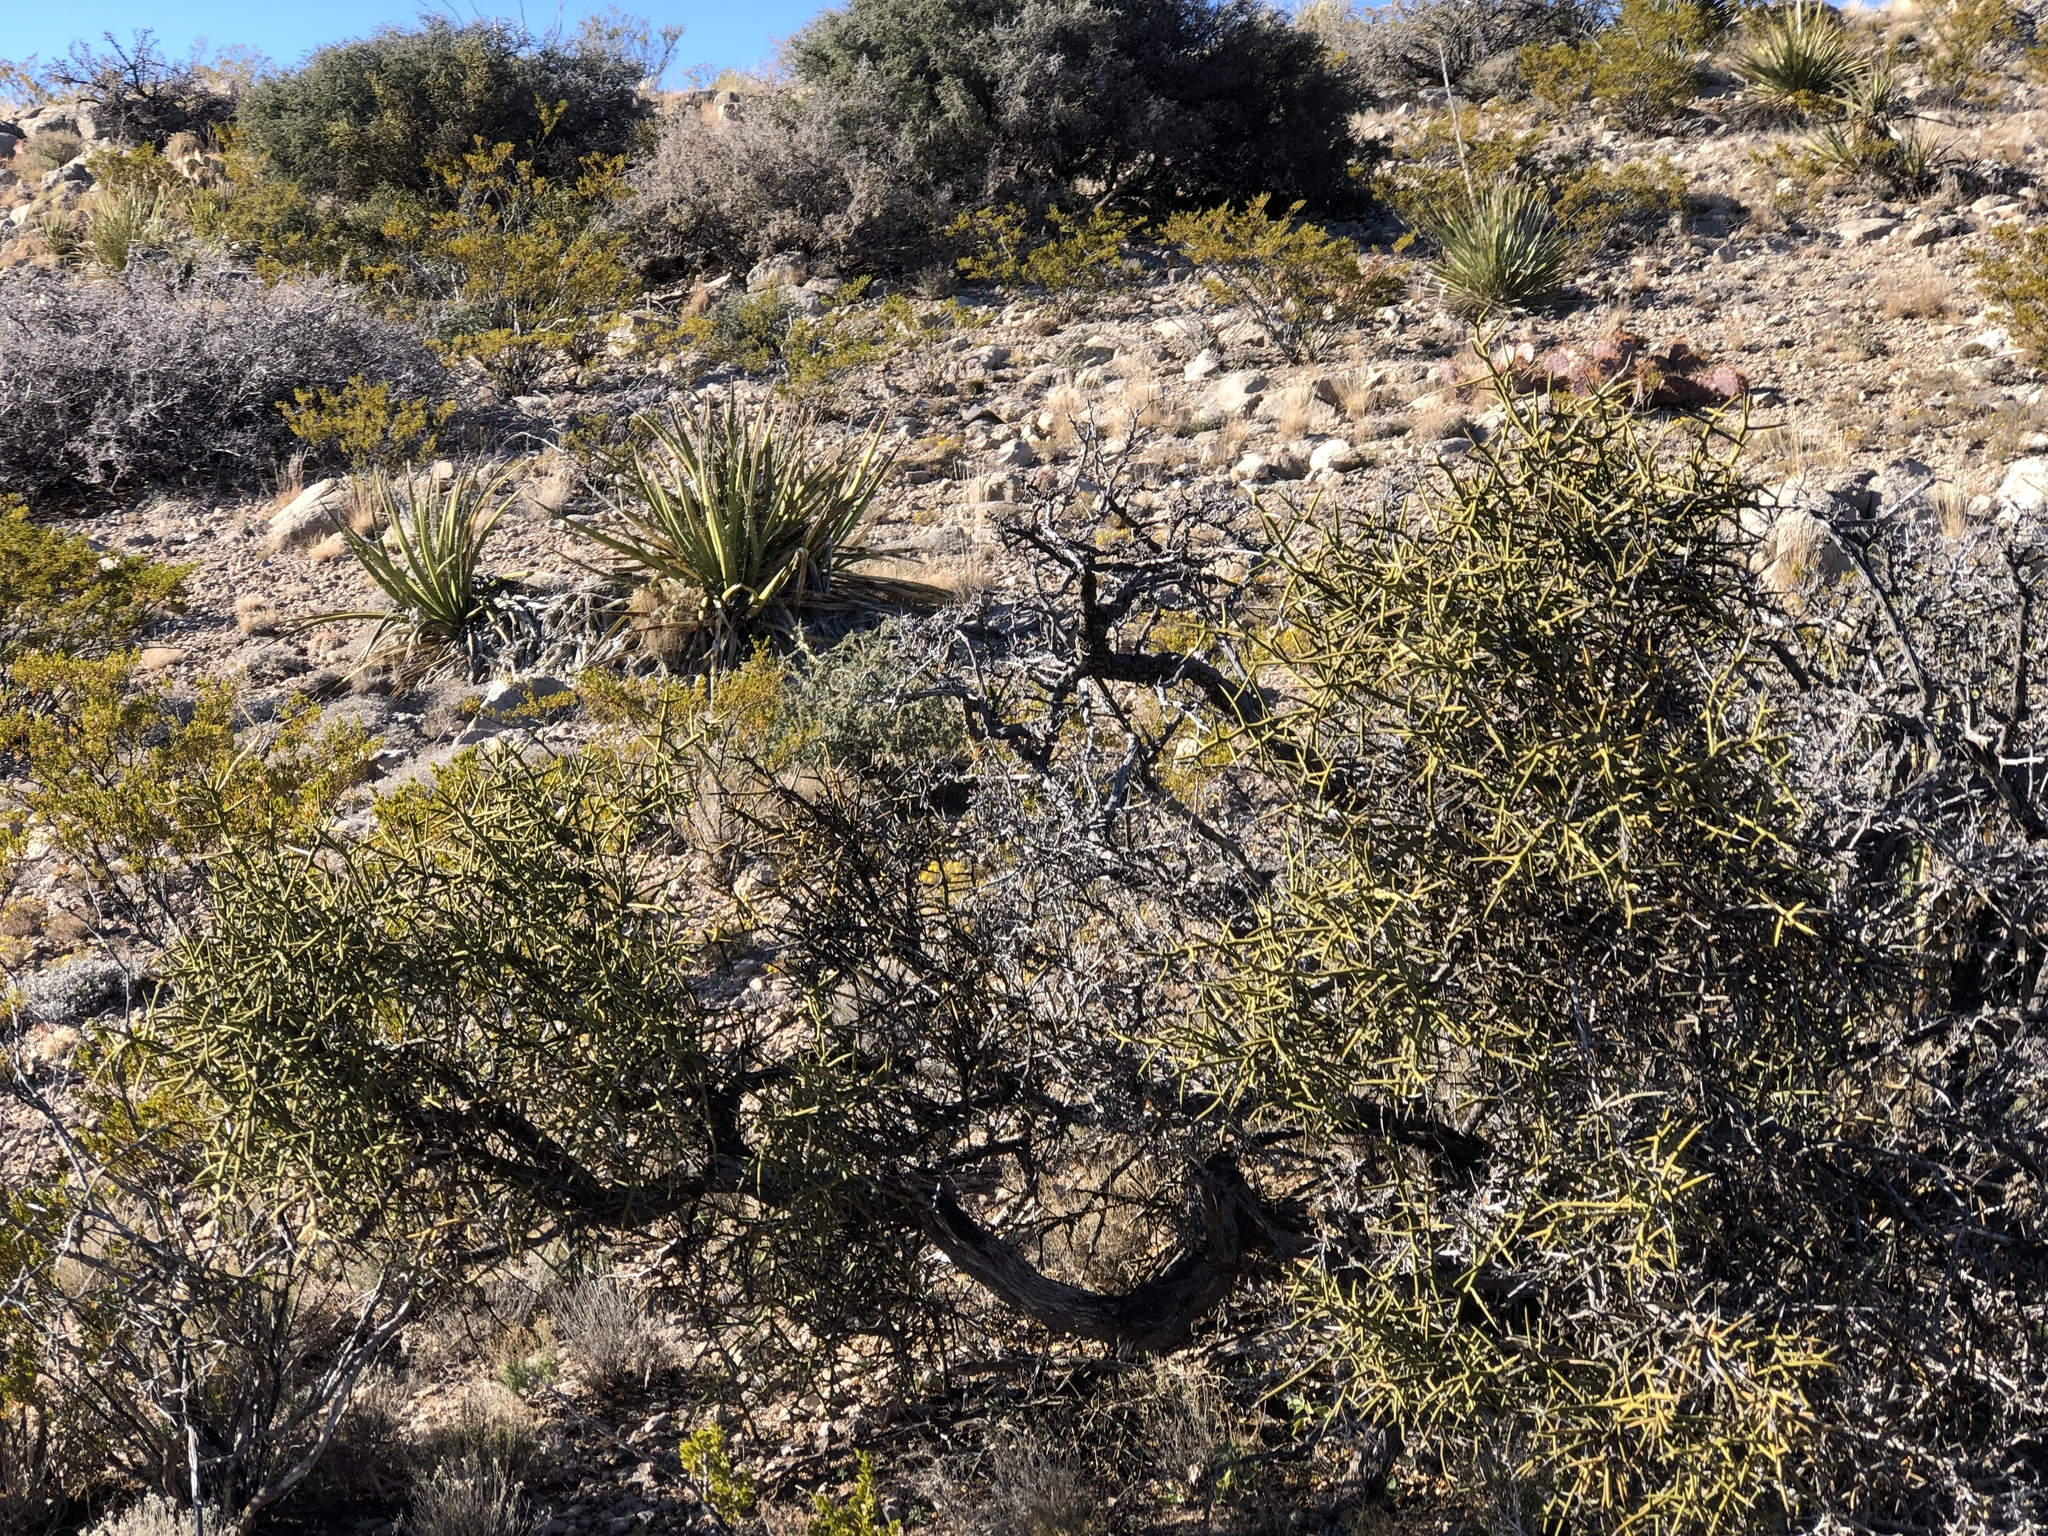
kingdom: Plantae
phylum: Tracheophyta
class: Magnoliopsida
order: Brassicales
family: Koeberliniaceae
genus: Koeberlinia
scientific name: Koeberlinia spinosa
